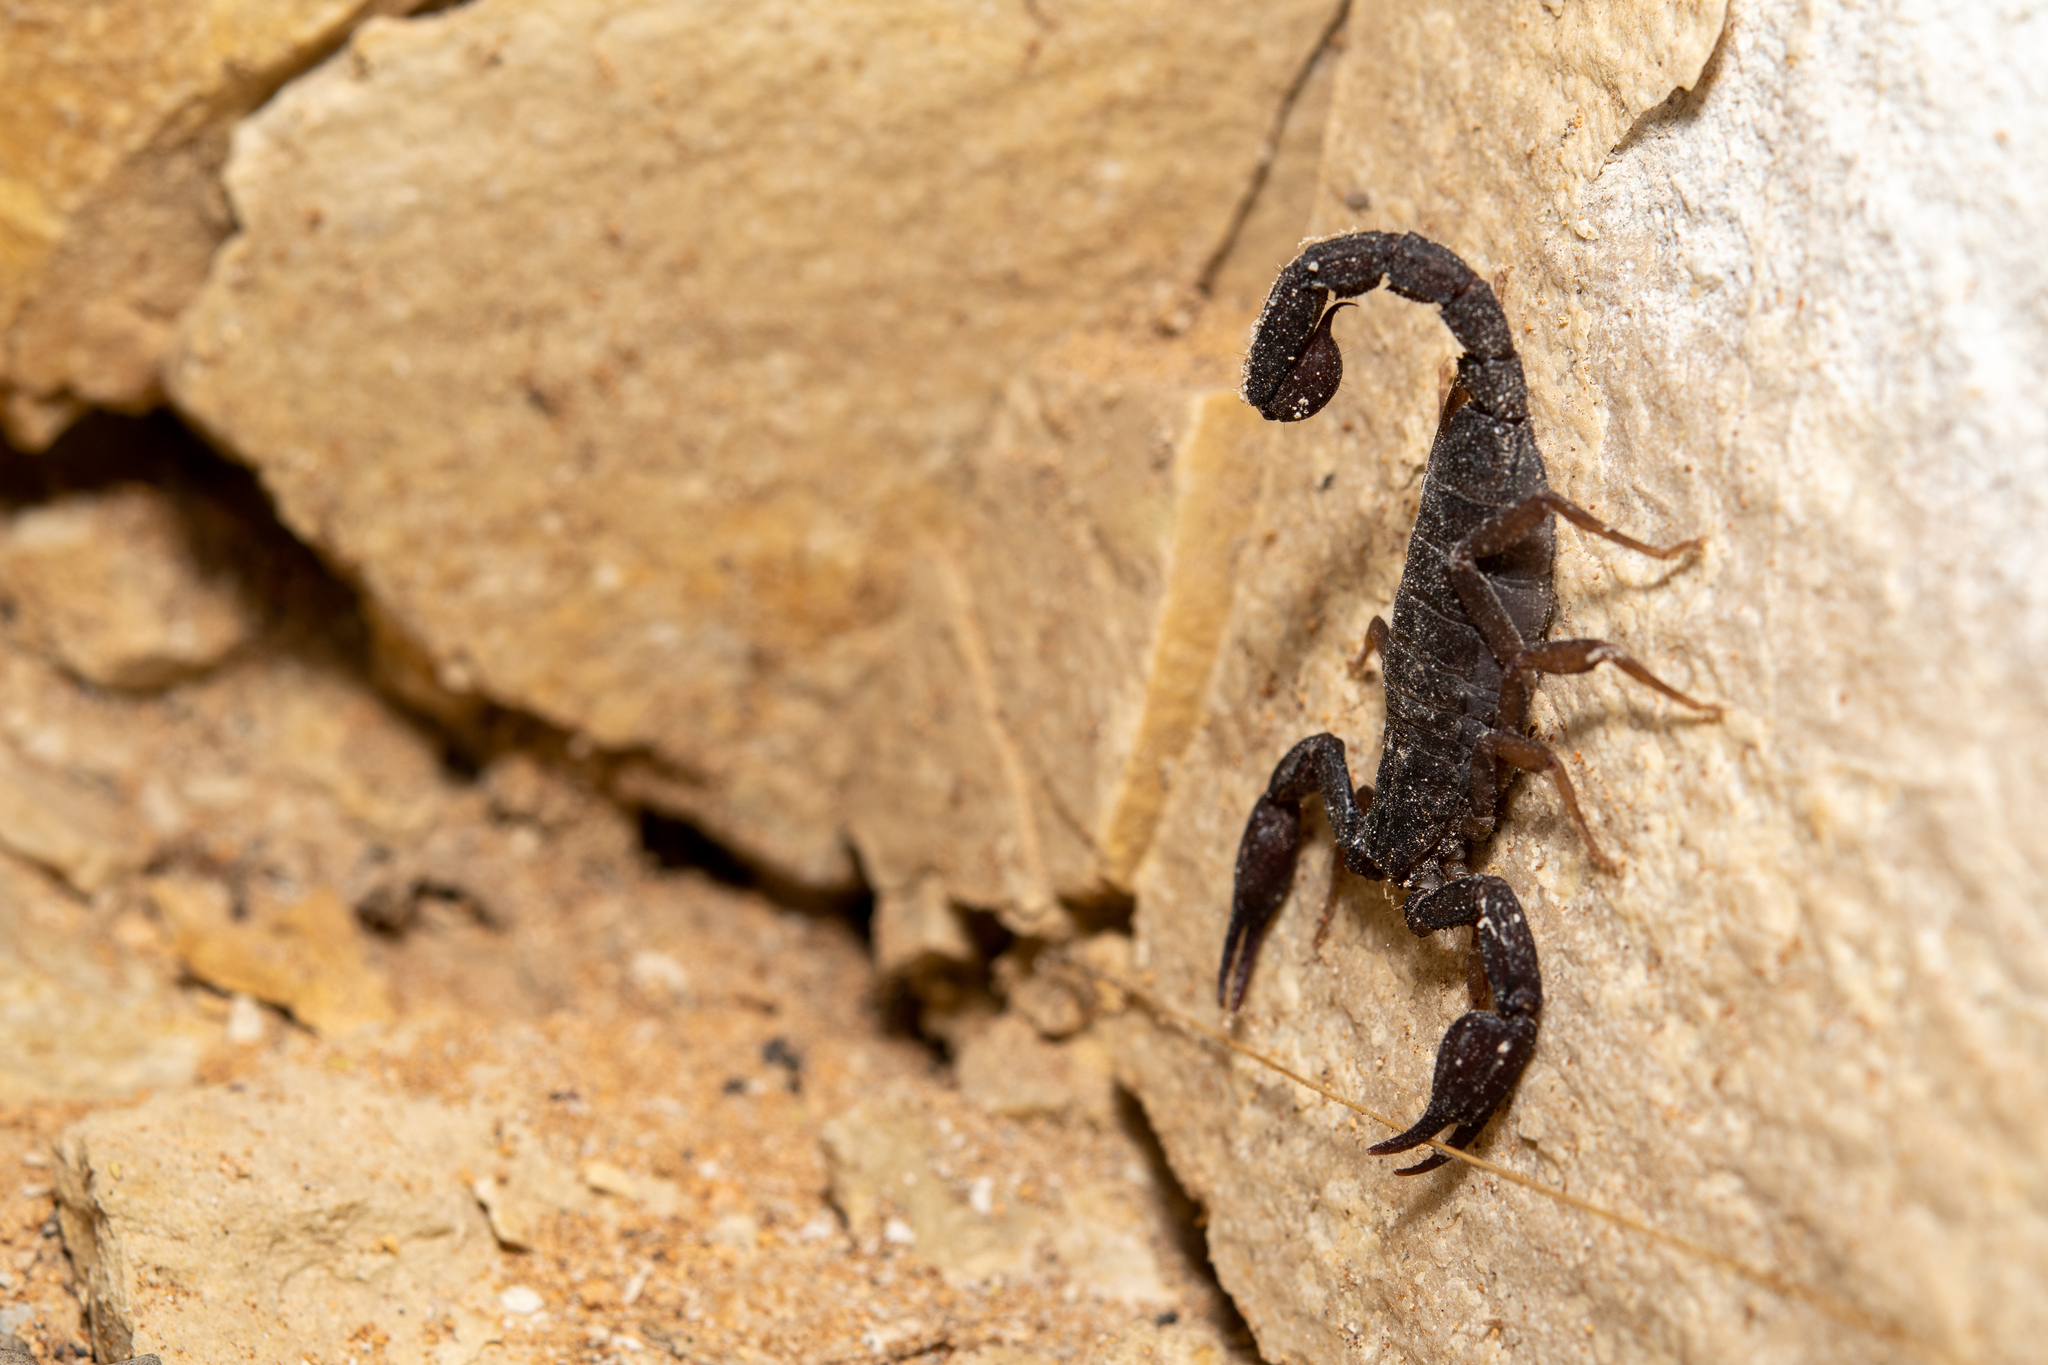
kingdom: Animalia
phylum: Arthropoda
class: Arachnida
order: Scorpiones
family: Vaejovidae
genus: Pseudouroctonus
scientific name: Pseudouroctonus reddelli
